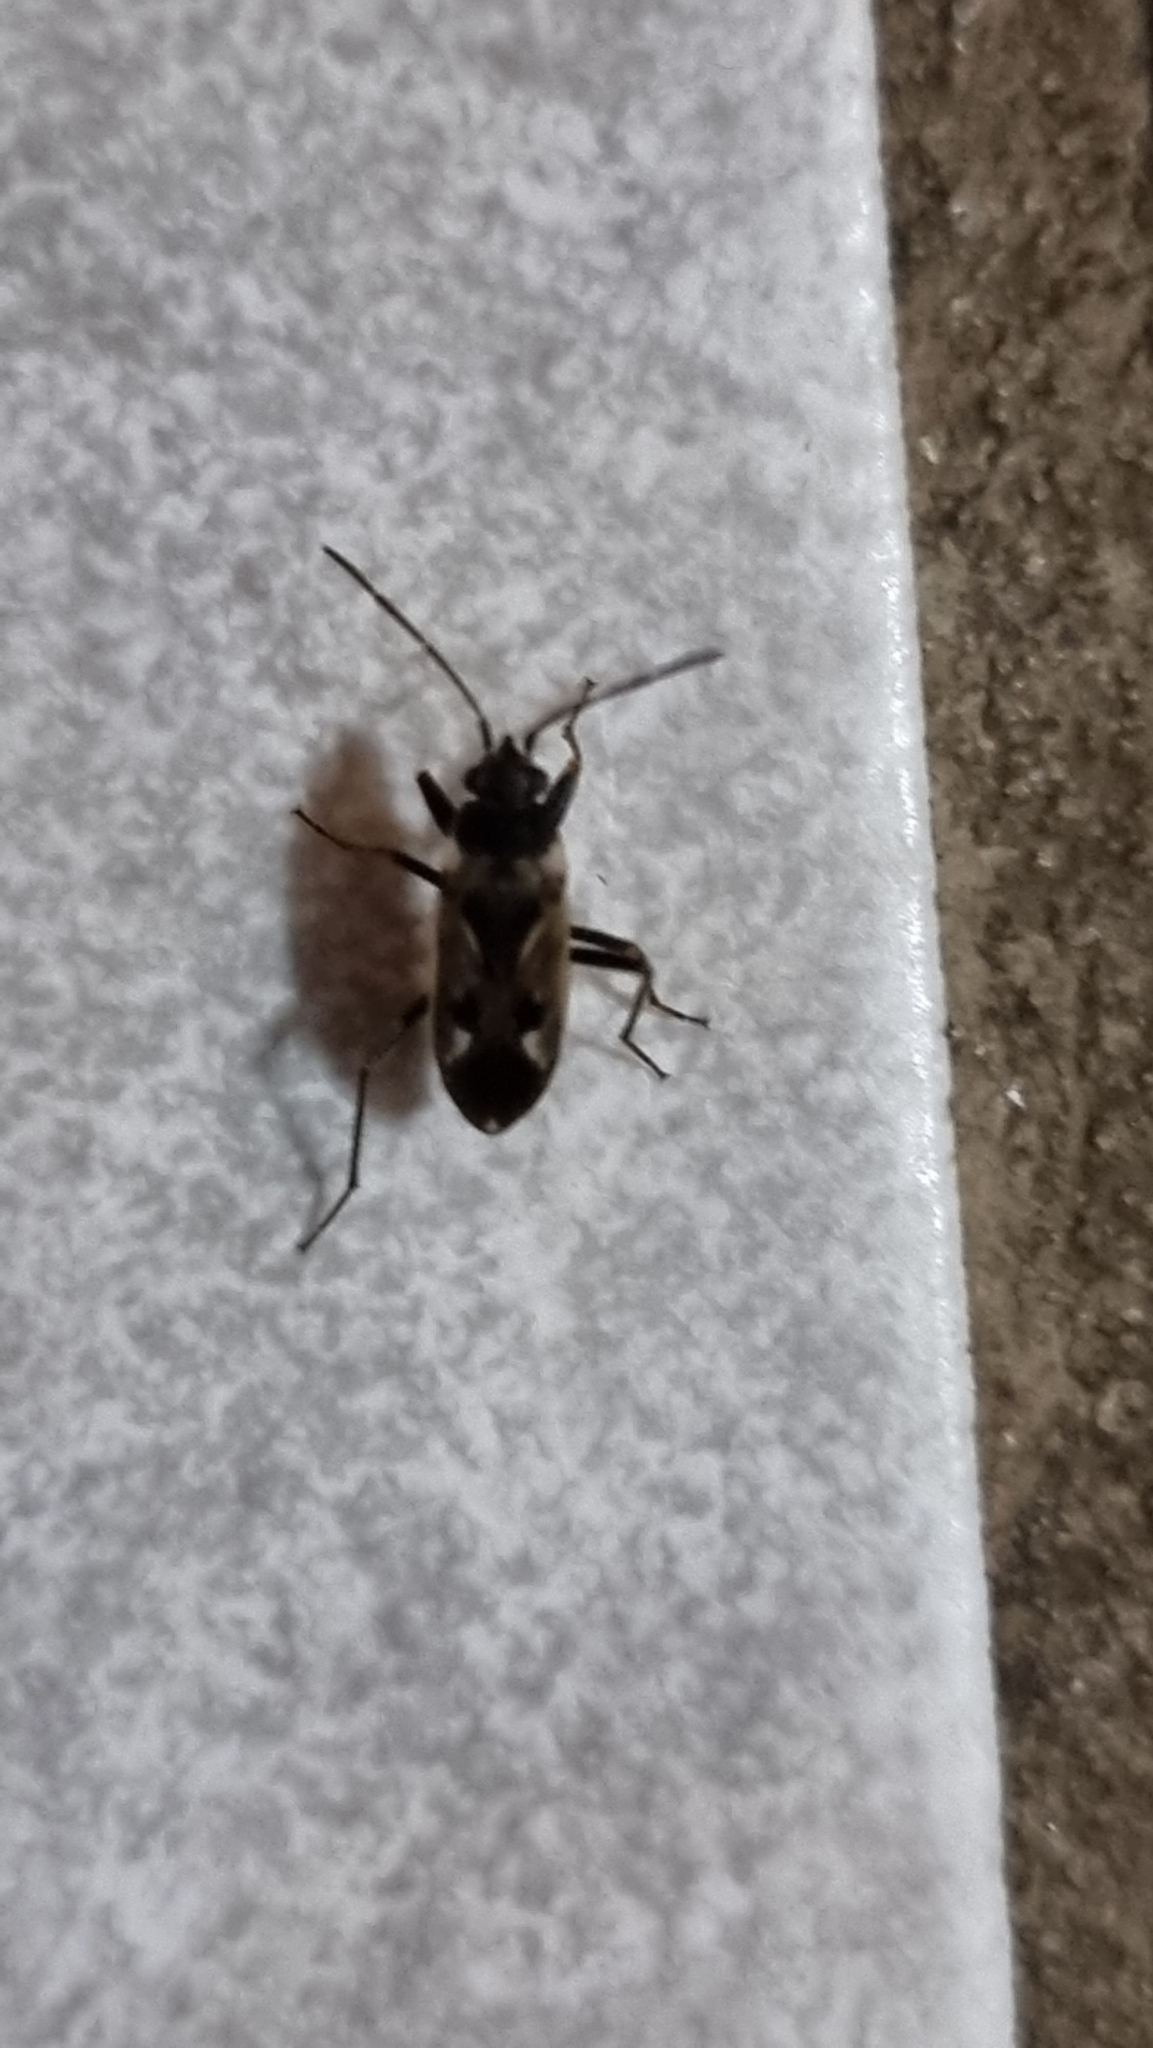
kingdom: Animalia
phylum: Arthropoda
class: Insecta
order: Hemiptera
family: Rhyparochromidae
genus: Rhyparochromus
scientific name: Rhyparochromus vulgaris
